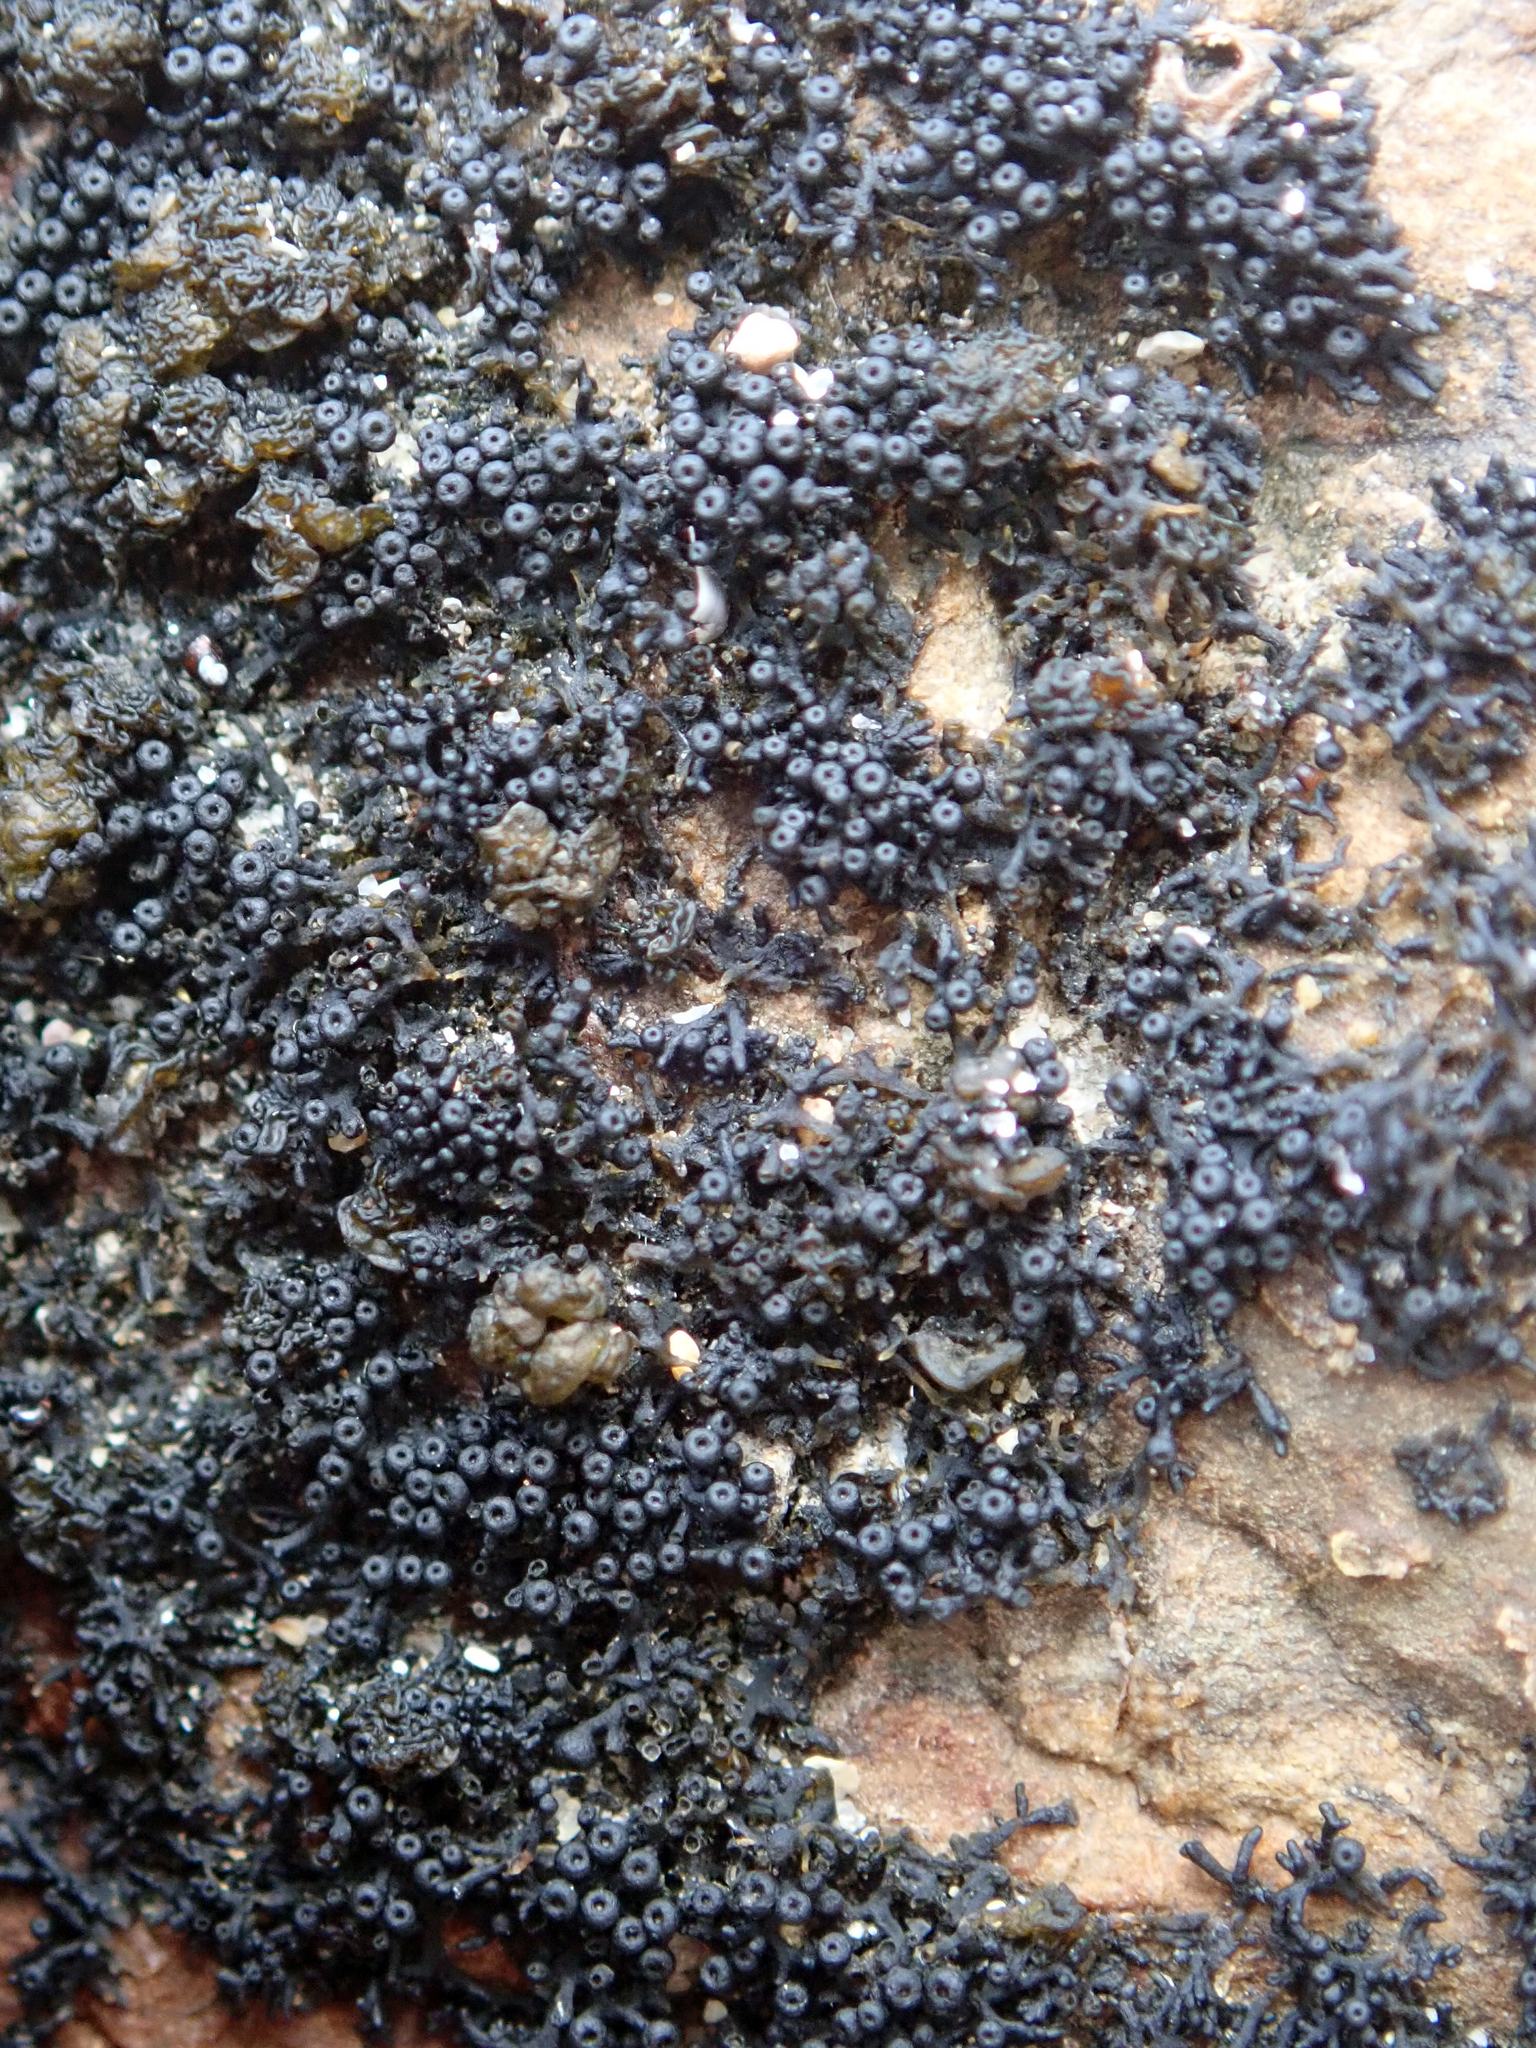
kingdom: Fungi
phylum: Ascomycota
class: Lichinomycetes
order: Lichinales
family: Lichinaceae
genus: Lichina
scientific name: Lichina intermedia
